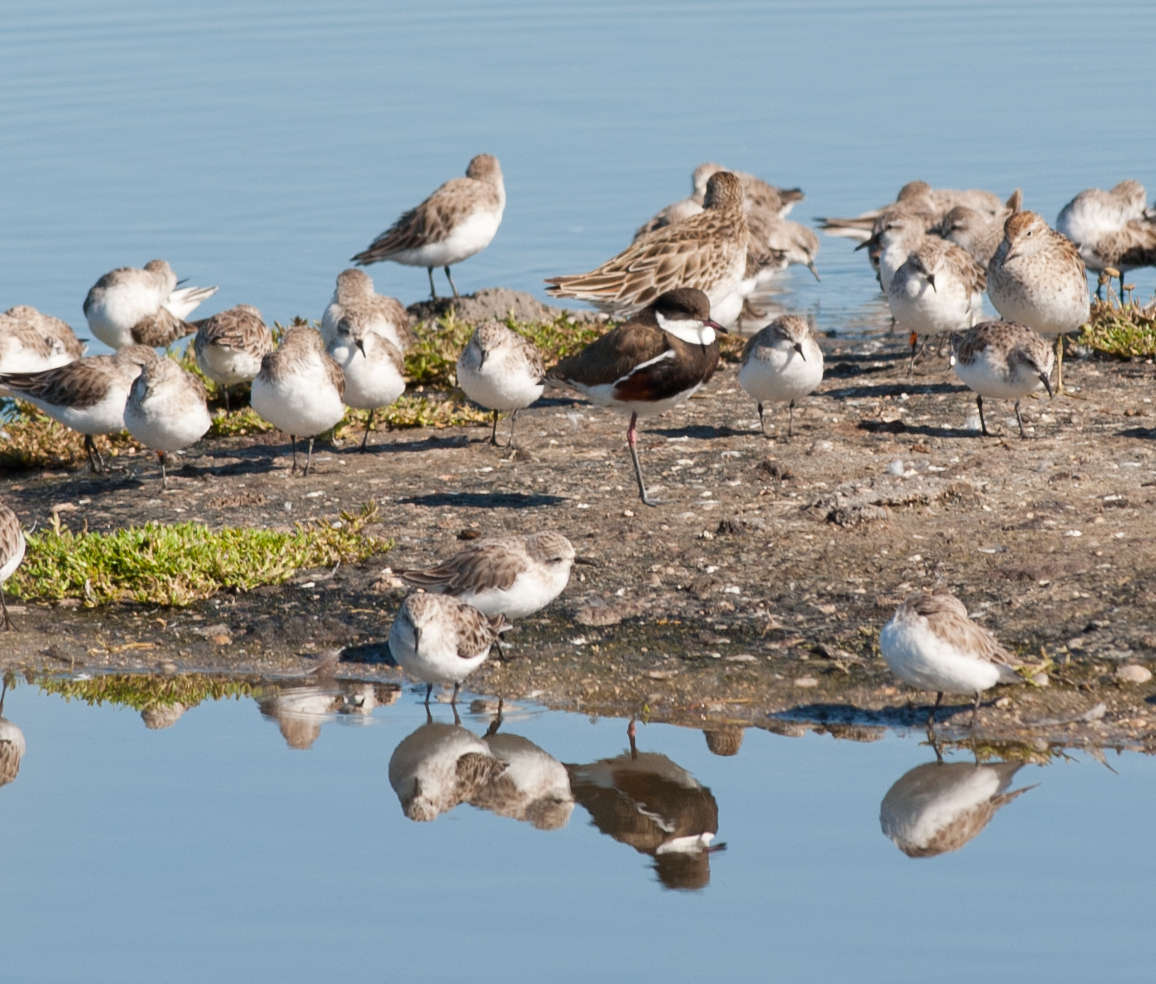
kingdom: Animalia
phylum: Chordata
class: Aves
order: Charadriiformes
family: Charadriidae
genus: Erythrogonys
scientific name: Erythrogonys cinctus
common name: Red-kneed dotterel
